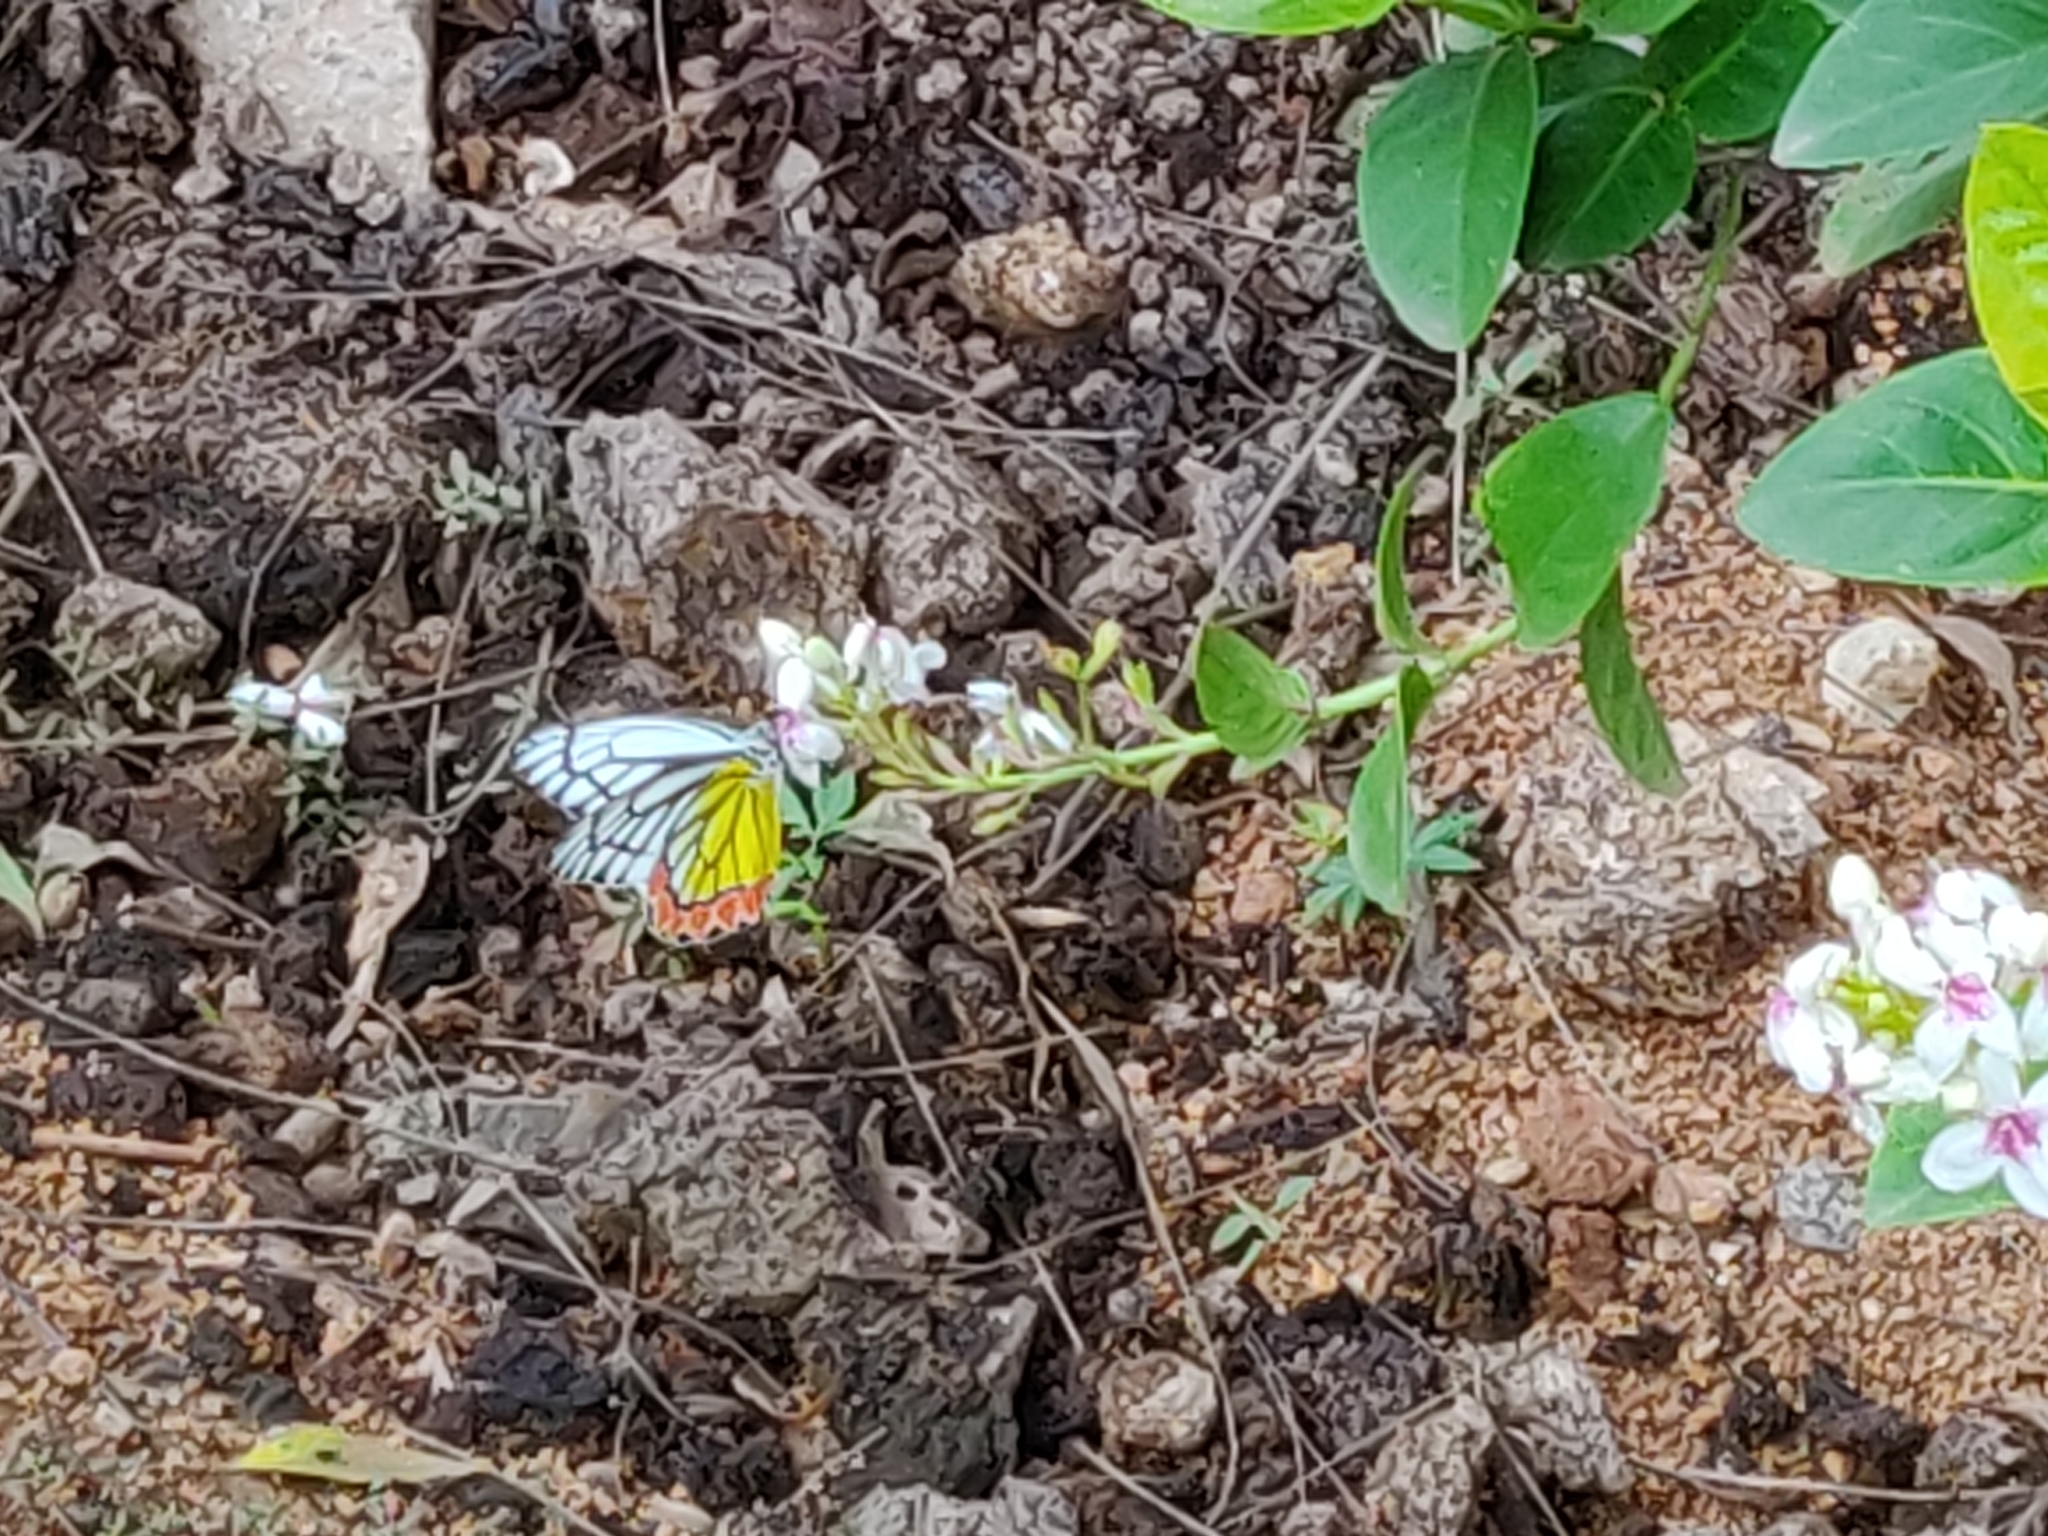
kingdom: Animalia
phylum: Arthropoda
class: Insecta
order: Lepidoptera
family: Pieridae
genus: Delias
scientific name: Delias eucharis
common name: Common jezebel
